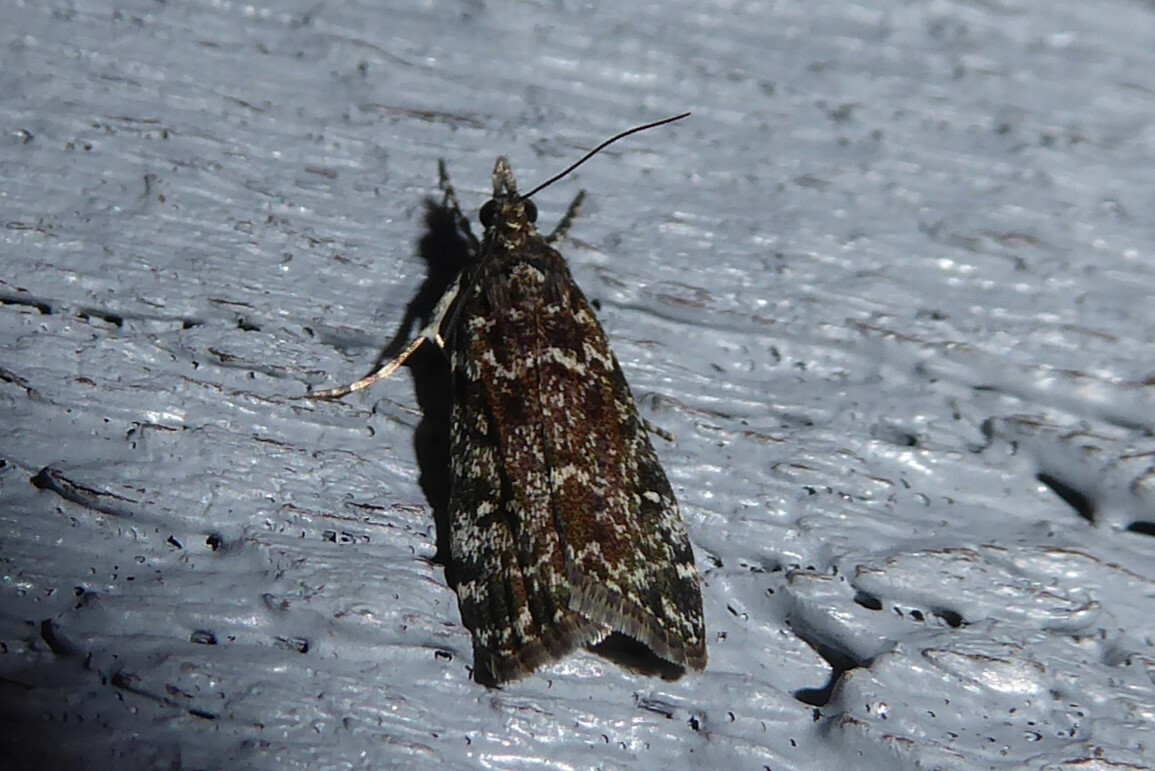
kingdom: Animalia
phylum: Arthropoda
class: Insecta
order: Lepidoptera
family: Crambidae
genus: Eudonia
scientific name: Eudonia philerga
